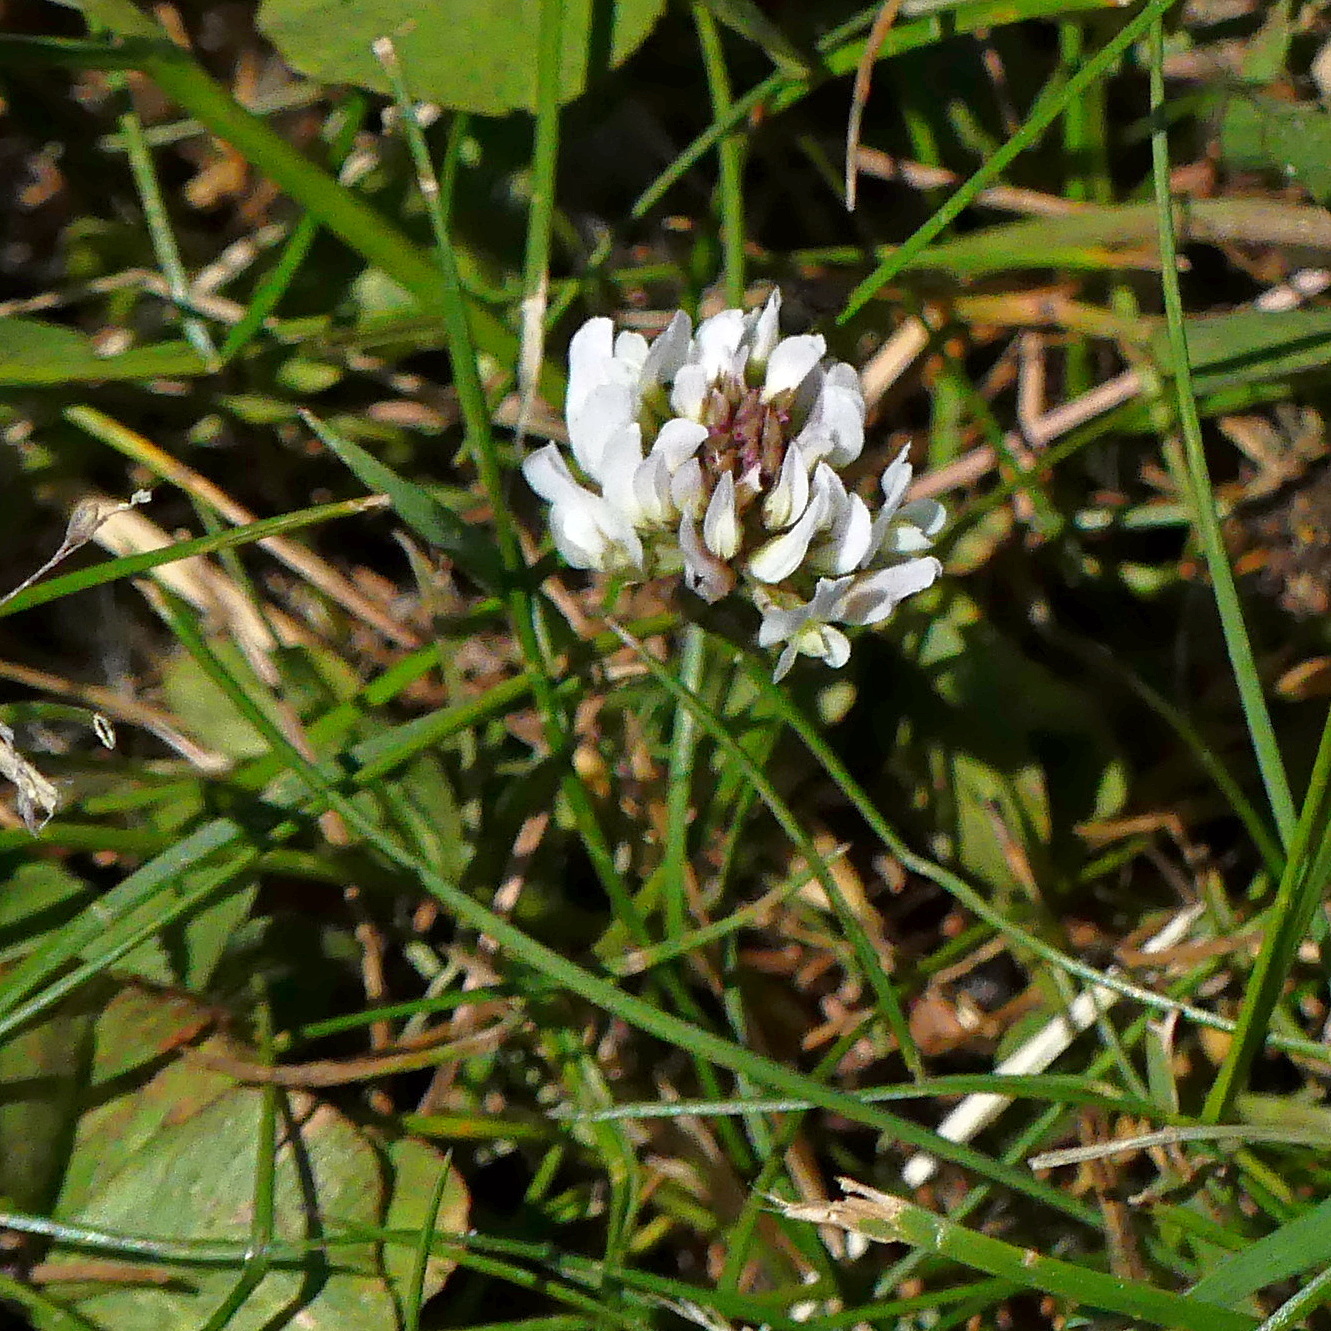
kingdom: Plantae
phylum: Tracheophyta
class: Magnoliopsida
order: Fabales
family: Fabaceae
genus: Trifolium
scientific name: Trifolium repens
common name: White clover
